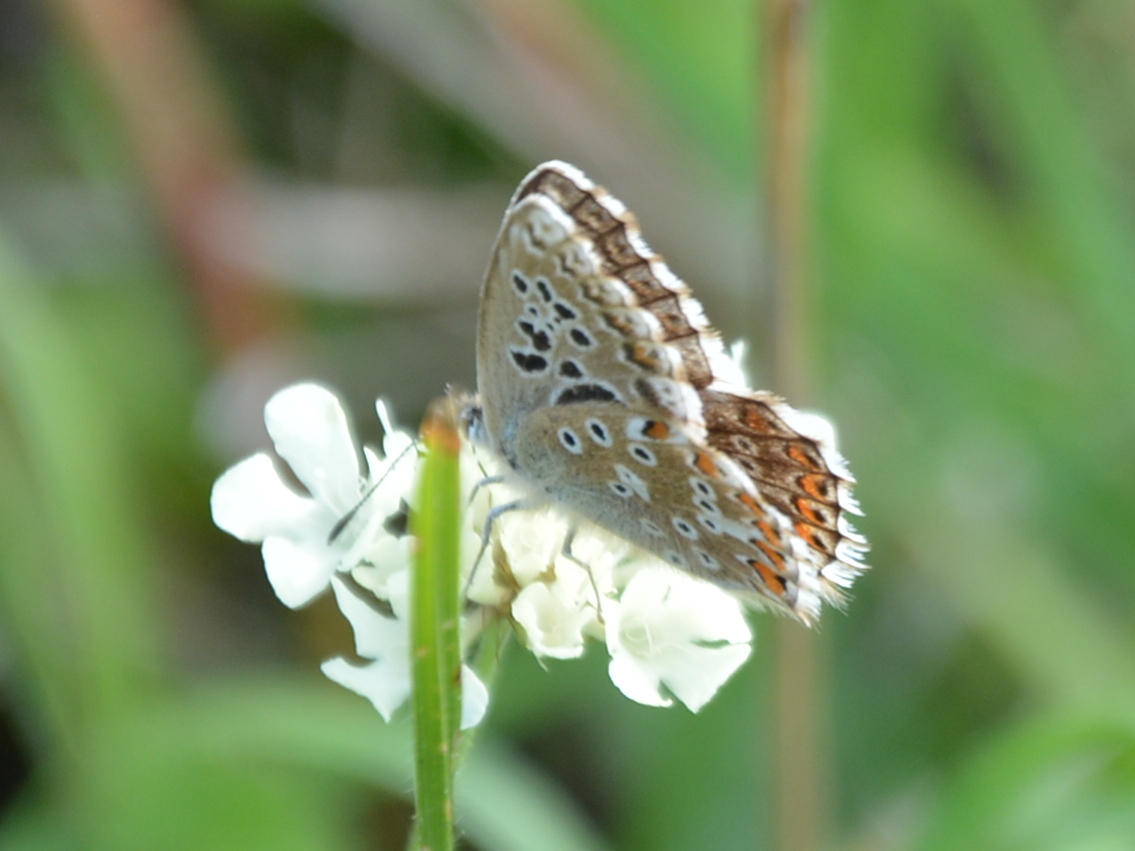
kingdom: Animalia
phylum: Arthropoda
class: Insecta
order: Lepidoptera
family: Lycaenidae
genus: Lysandra
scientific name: Lysandra coridon
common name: Chalkhill blue
